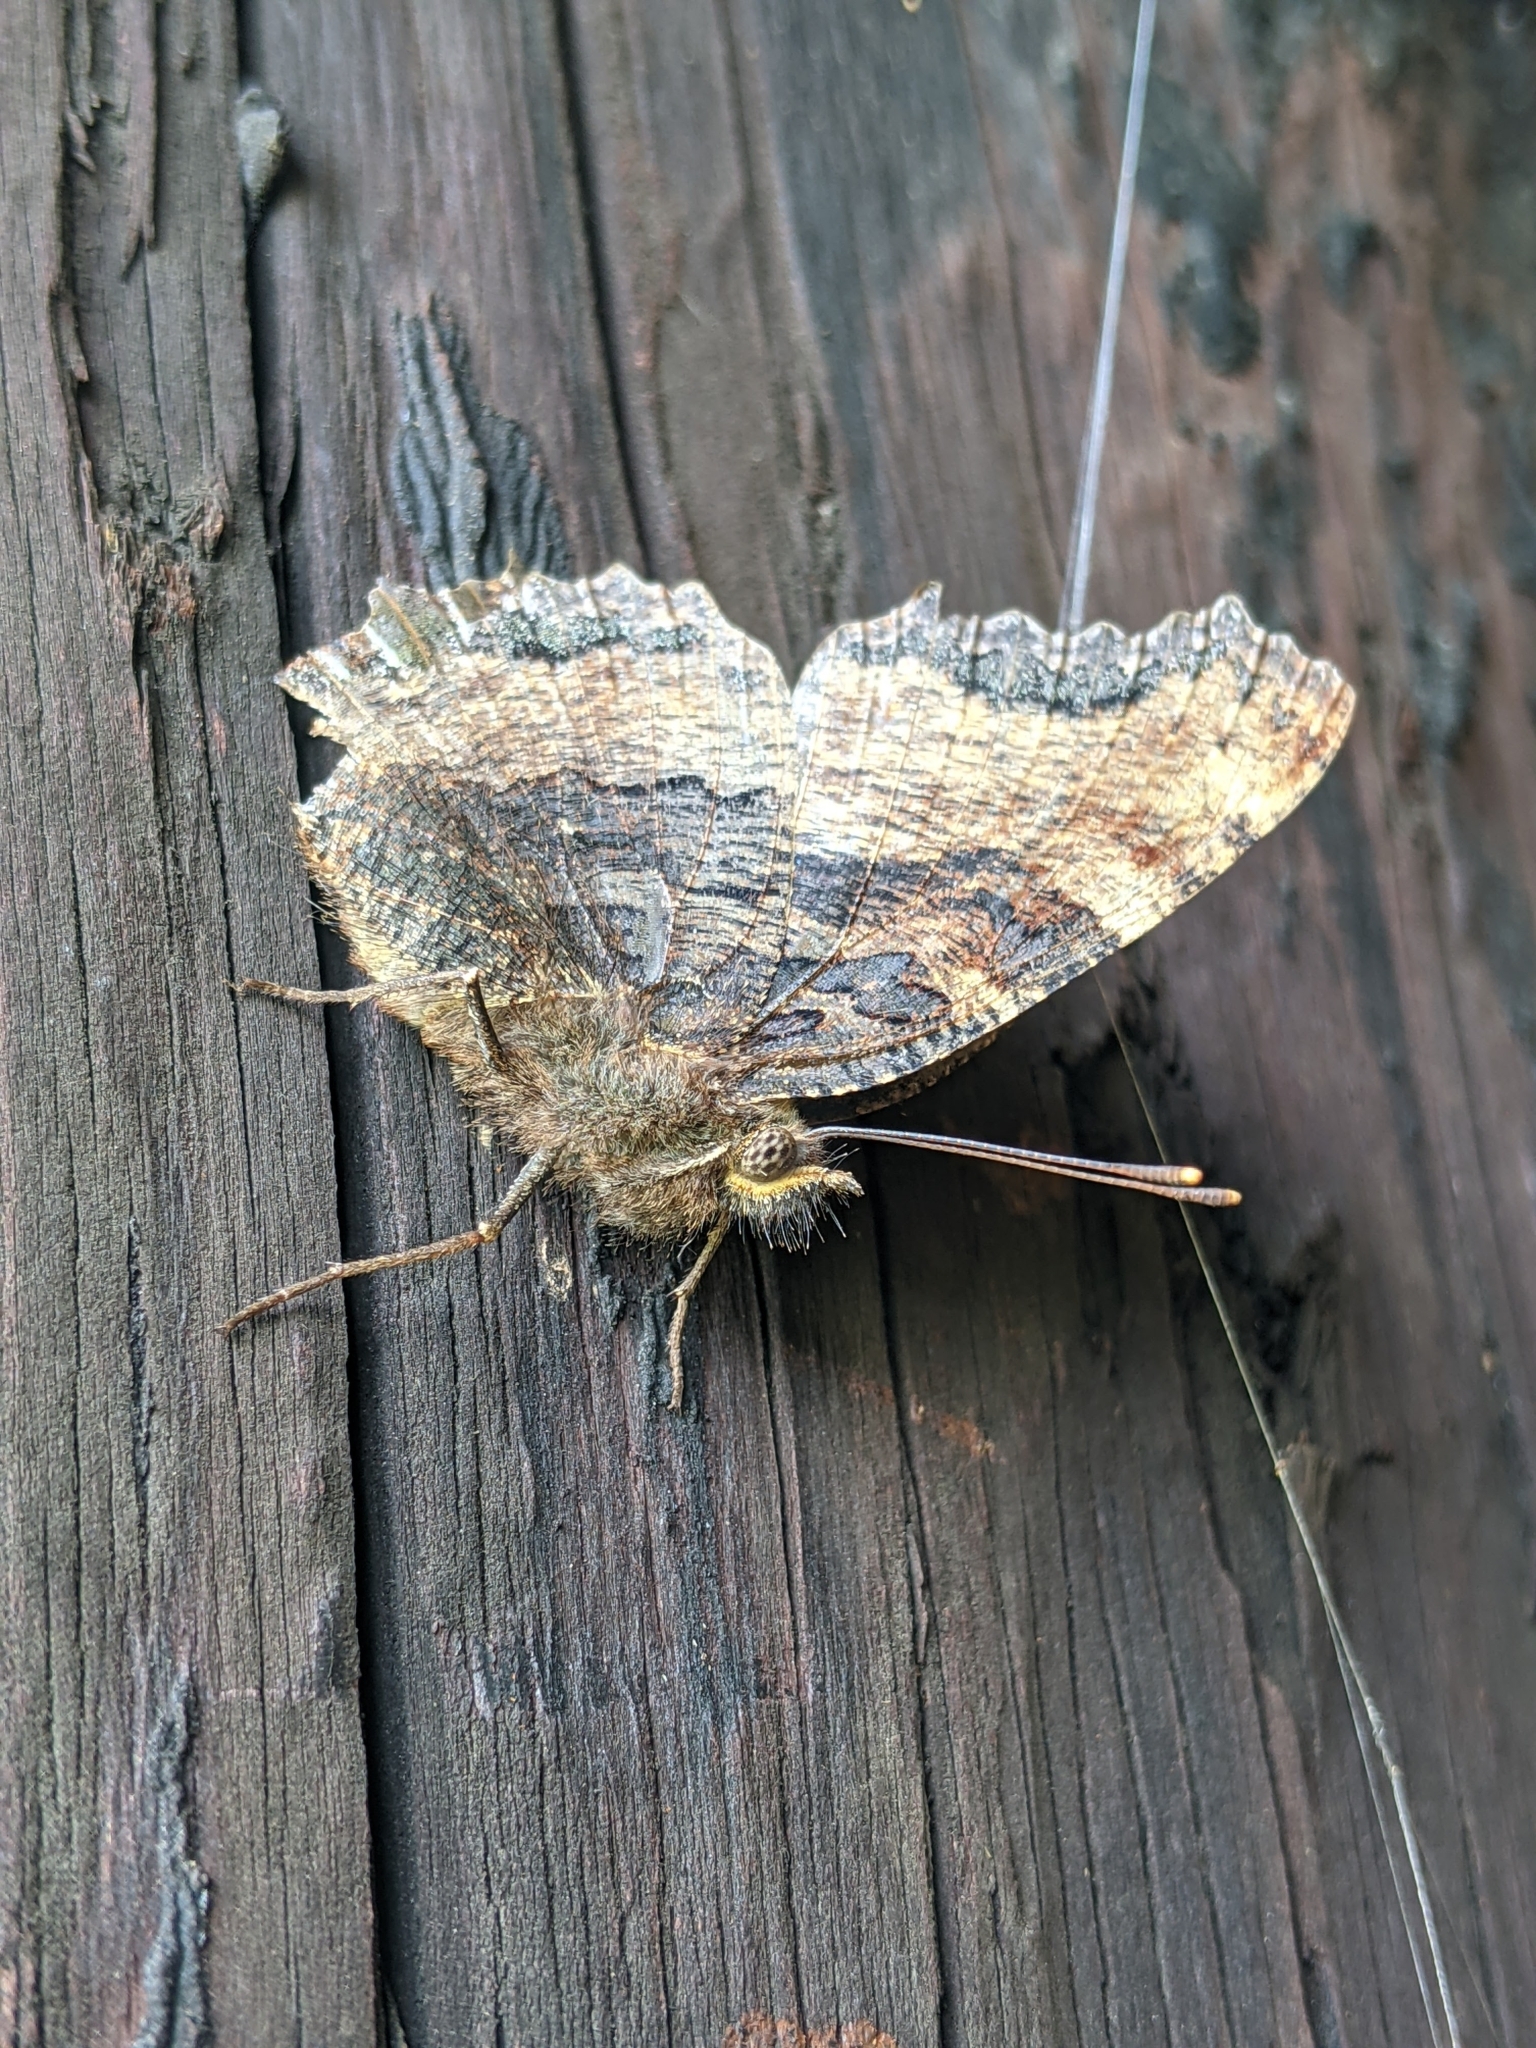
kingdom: Animalia
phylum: Arthropoda
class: Insecta
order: Lepidoptera
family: Nymphalidae
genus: Nymphalis
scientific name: Nymphalis polychloros
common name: Large tortoiseshell
